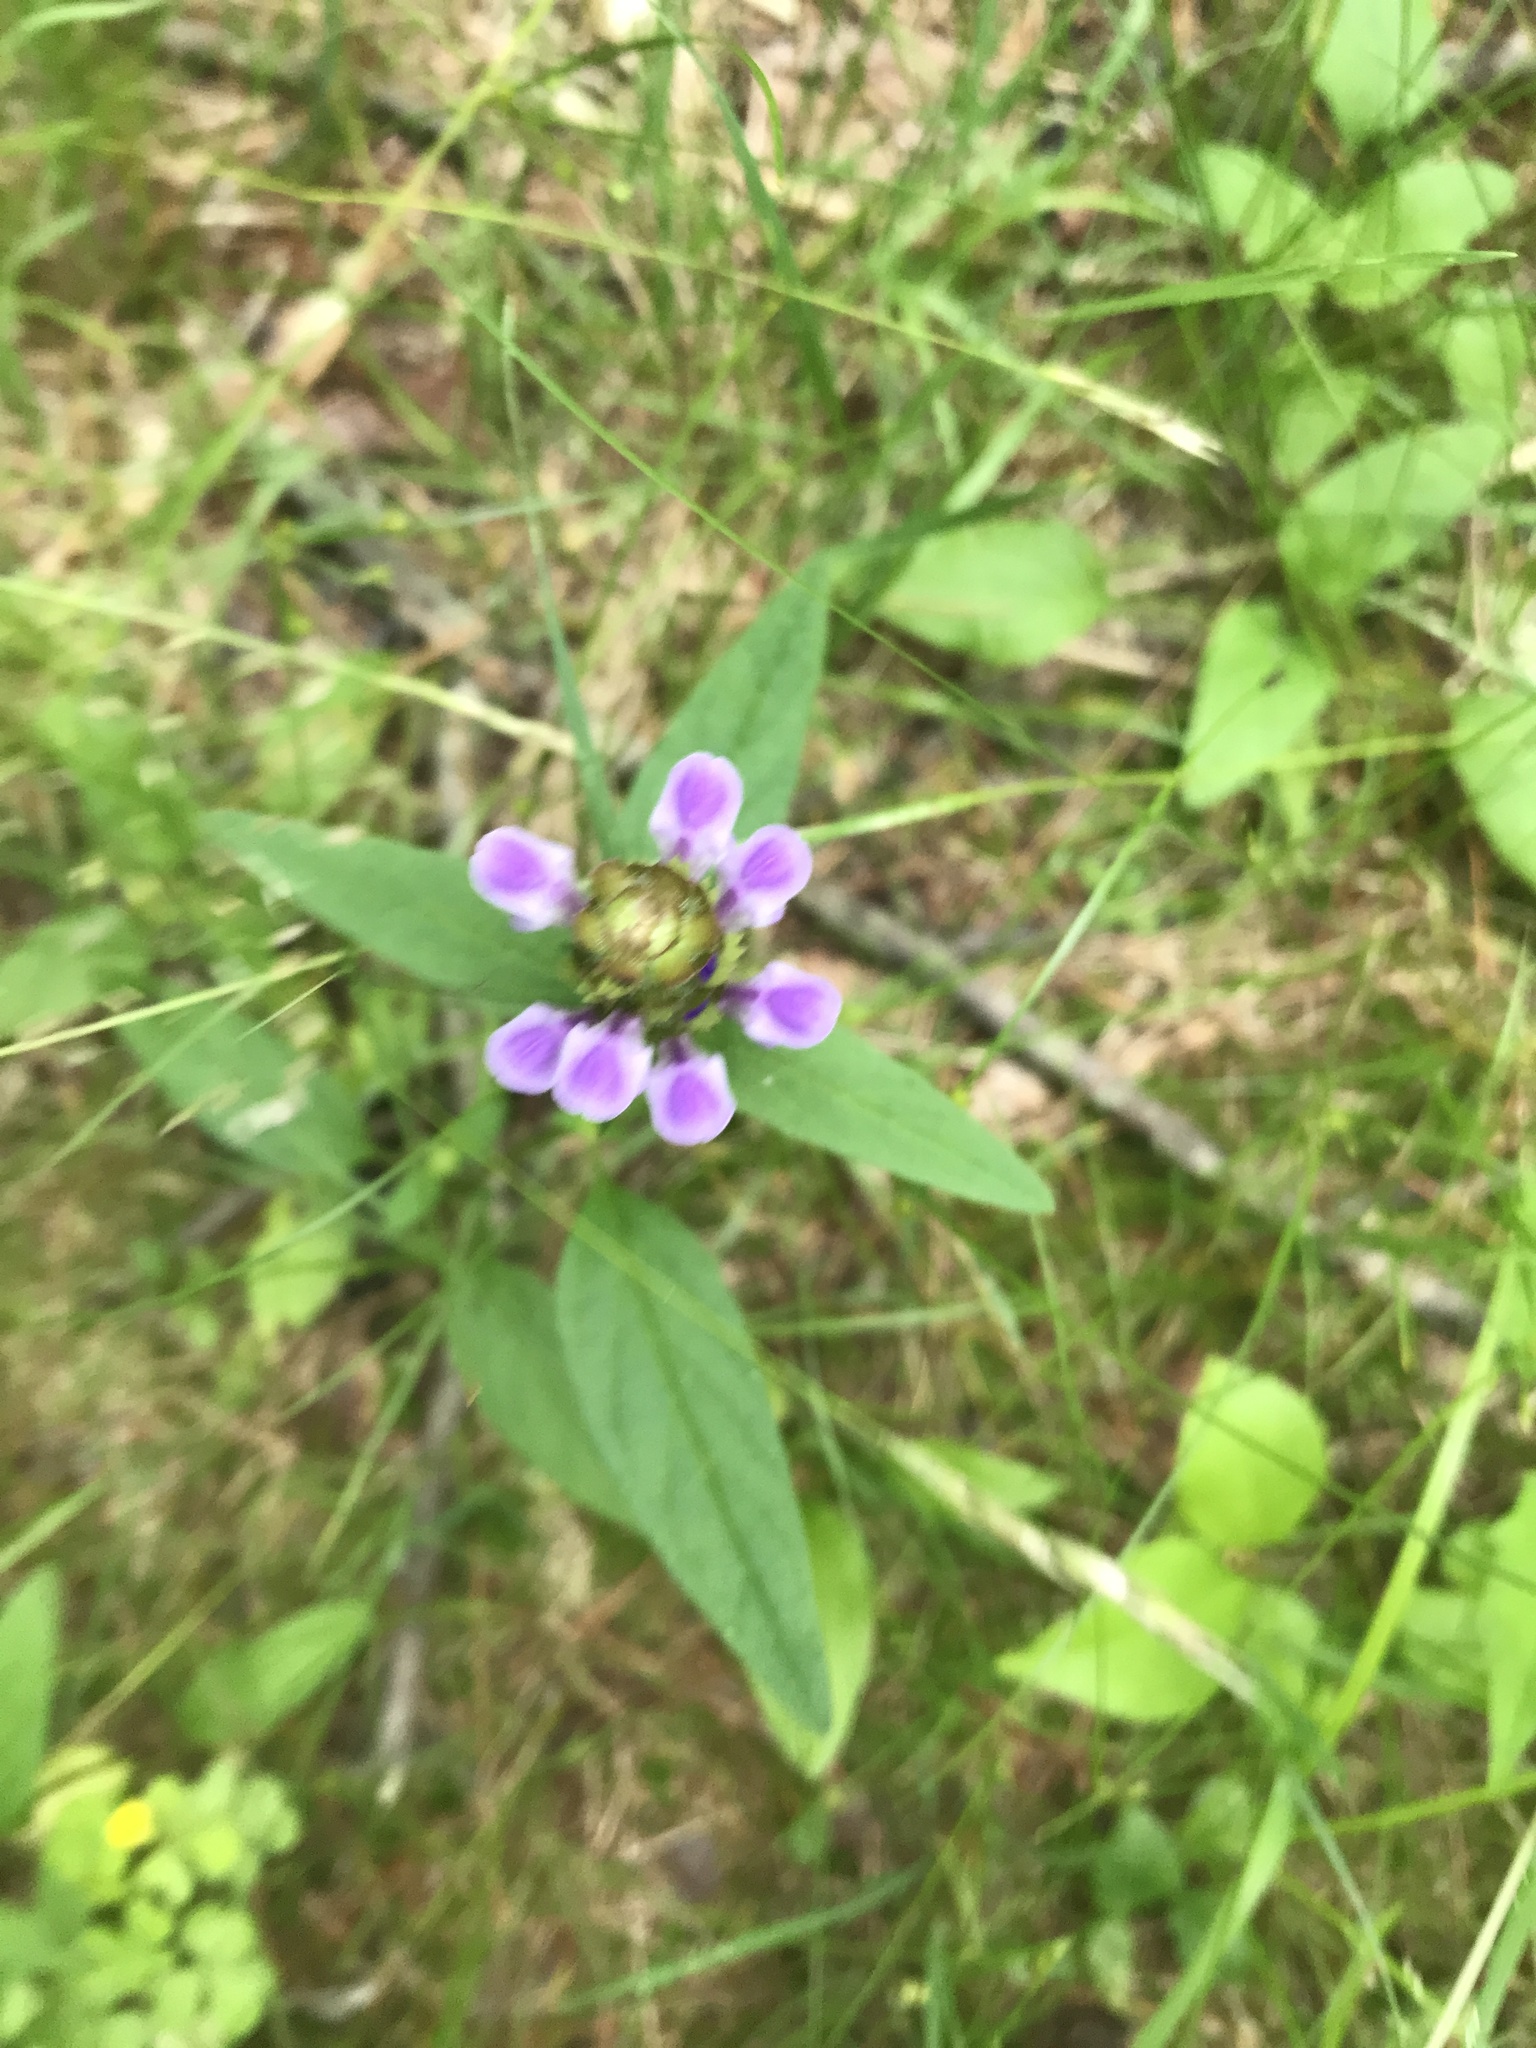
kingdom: Plantae
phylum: Tracheophyta
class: Magnoliopsida
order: Lamiales
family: Lamiaceae
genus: Prunella
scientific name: Prunella vulgaris
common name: Heal-all
